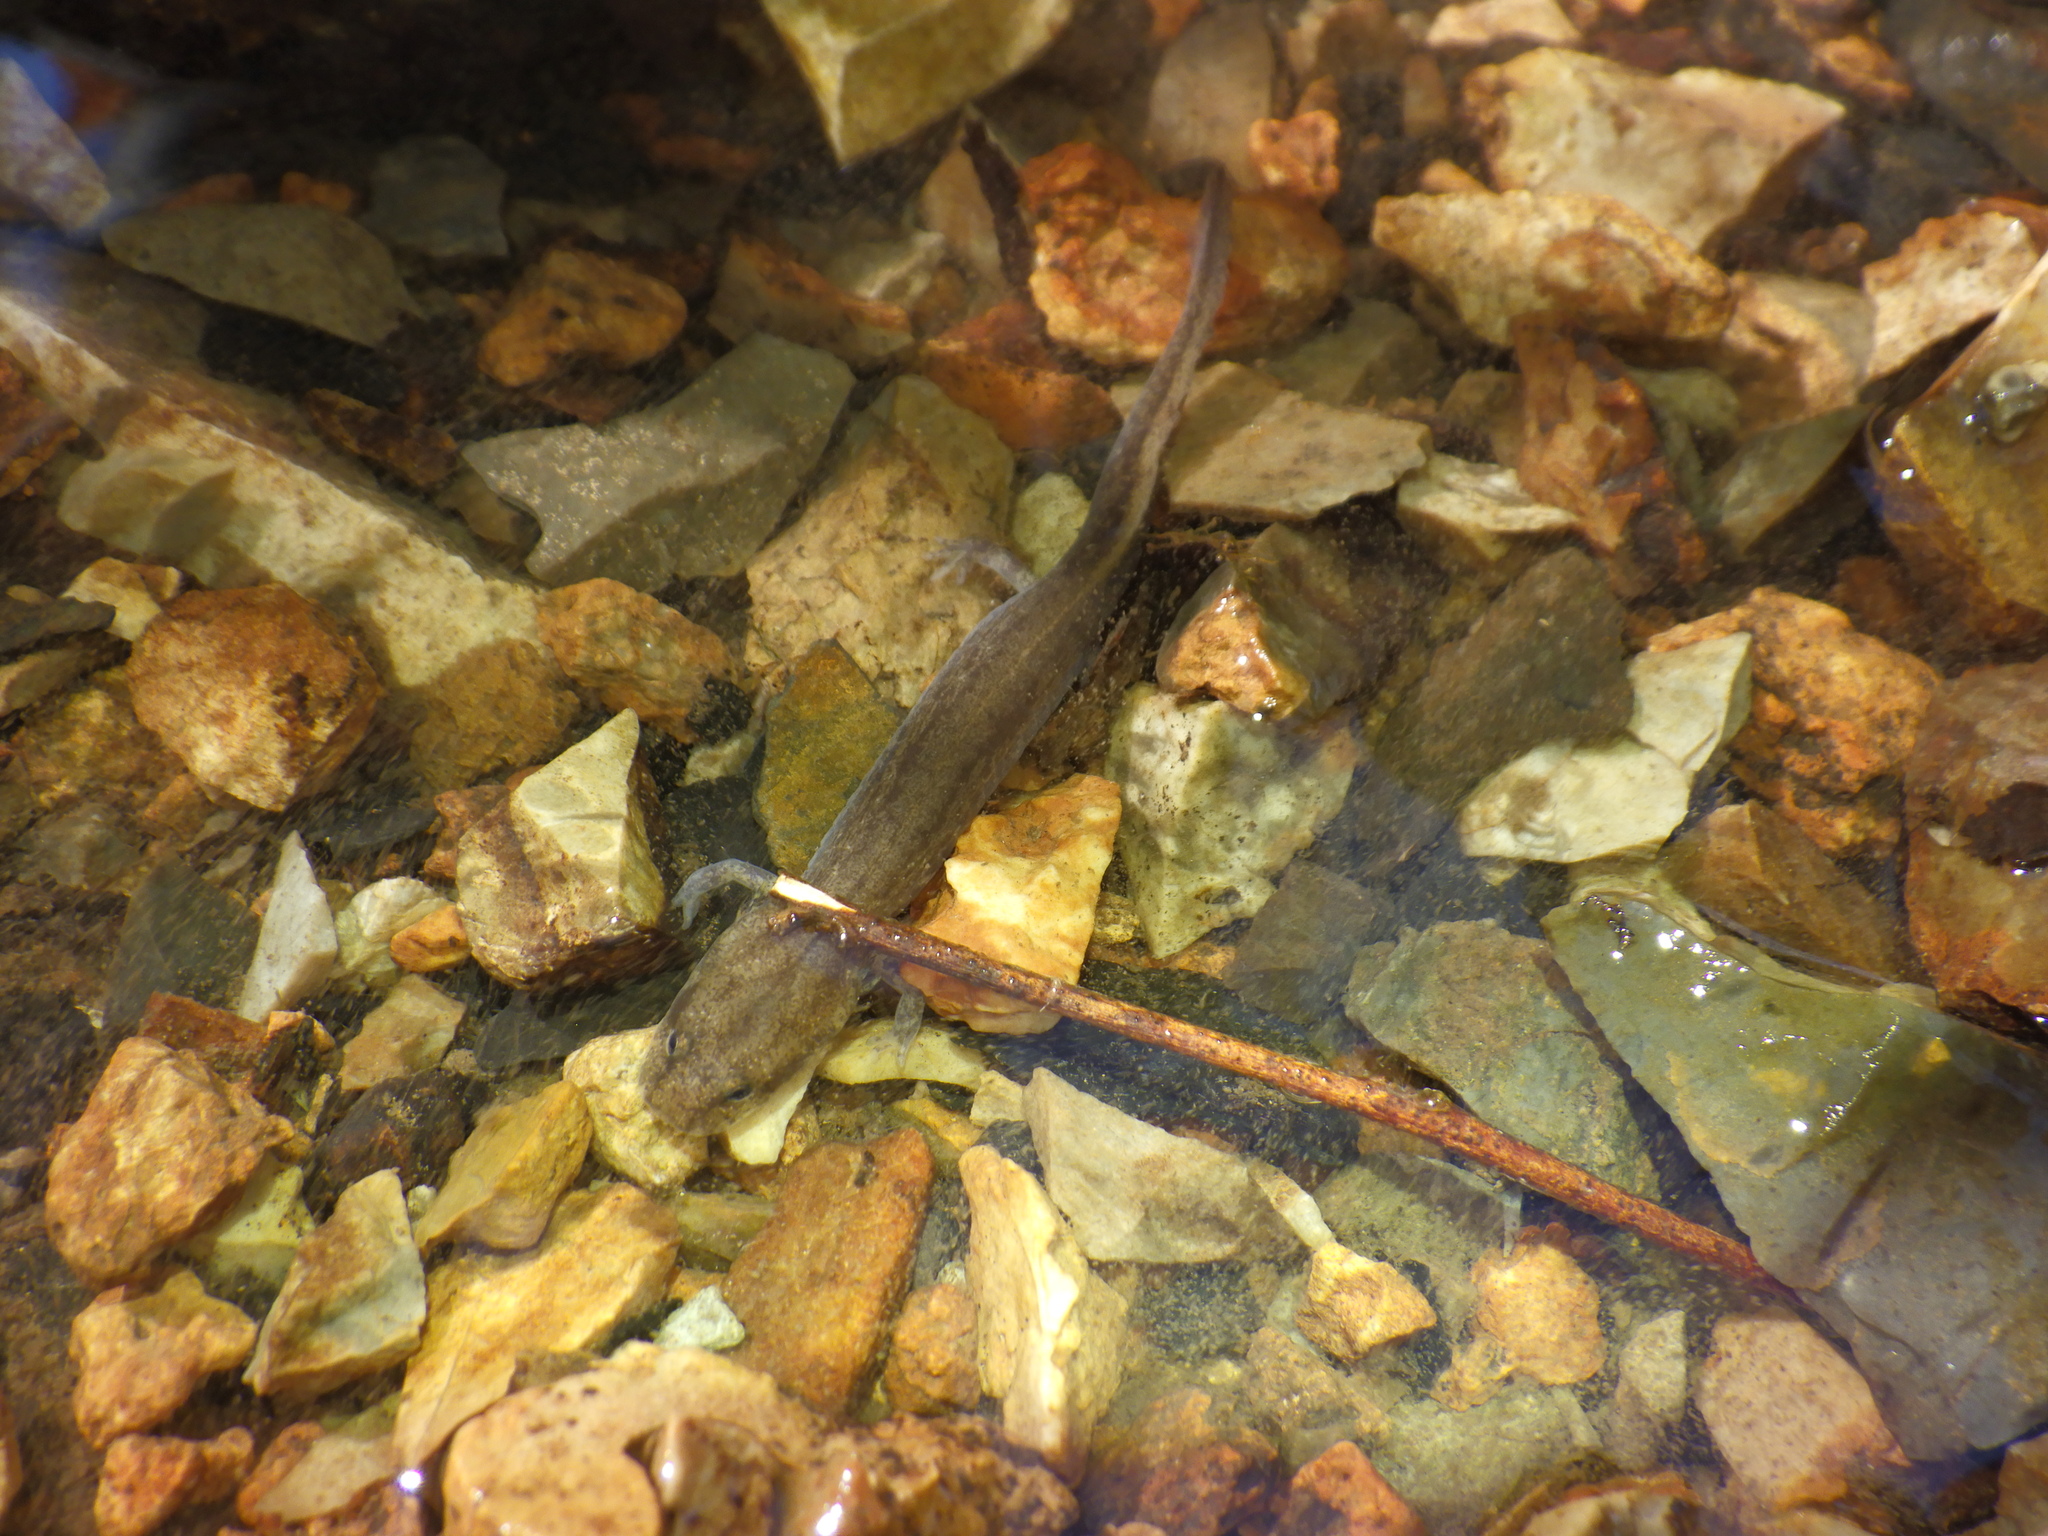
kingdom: Animalia
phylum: Chordata
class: Amphibia
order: Caudata
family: Plethodontidae
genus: Eurycea
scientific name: Eurycea spelaea
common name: Grotto salamander
